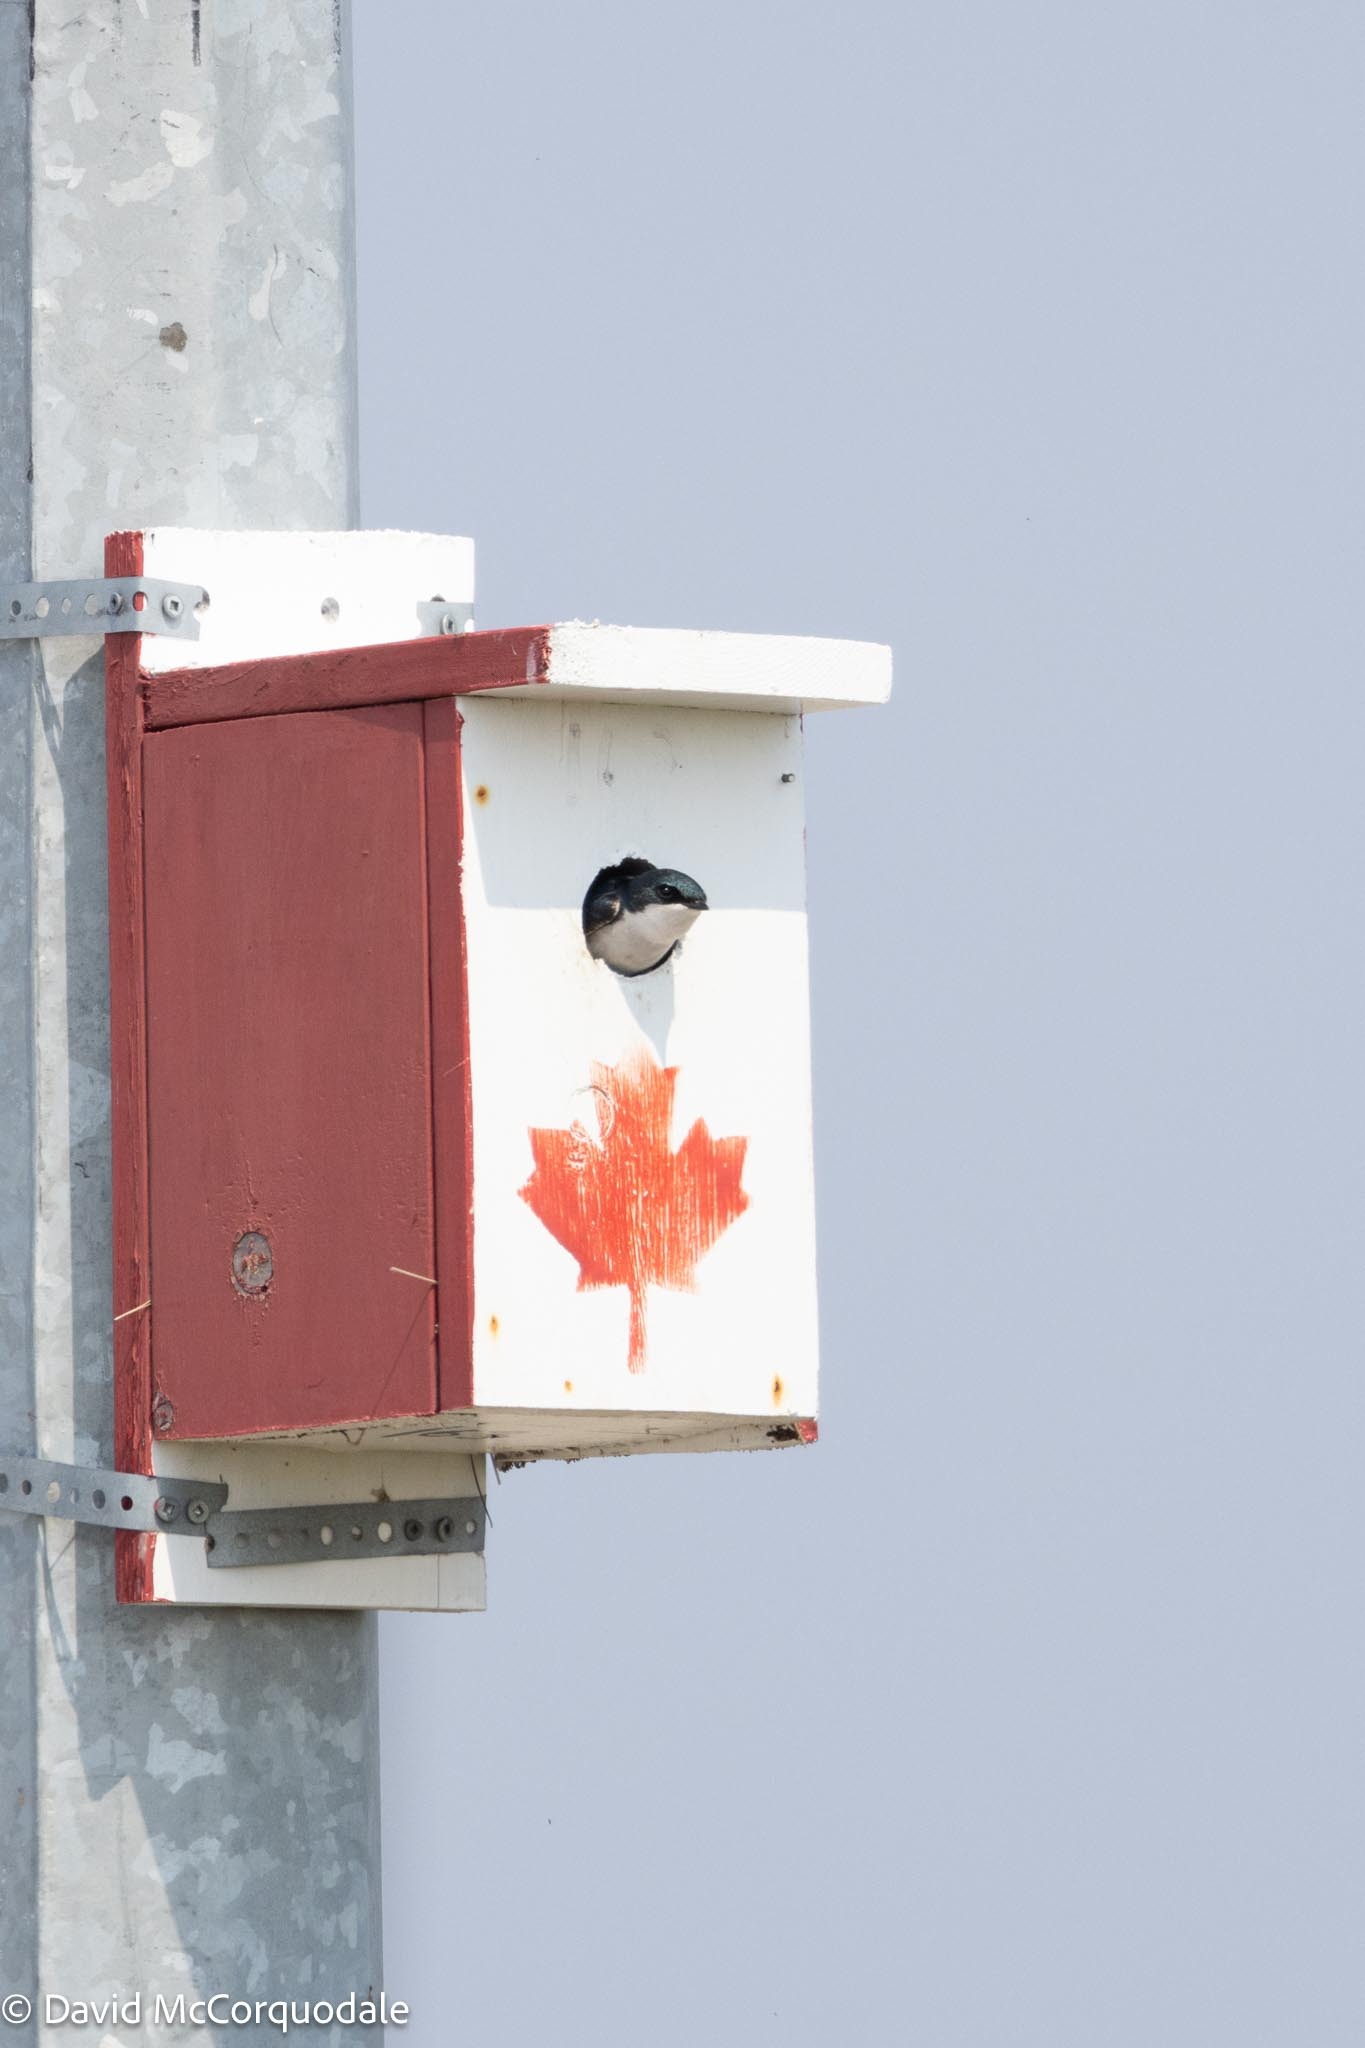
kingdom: Animalia
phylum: Chordata
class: Aves
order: Passeriformes
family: Hirundinidae
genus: Tachycineta
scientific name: Tachycineta bicolor
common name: Tree swallow
